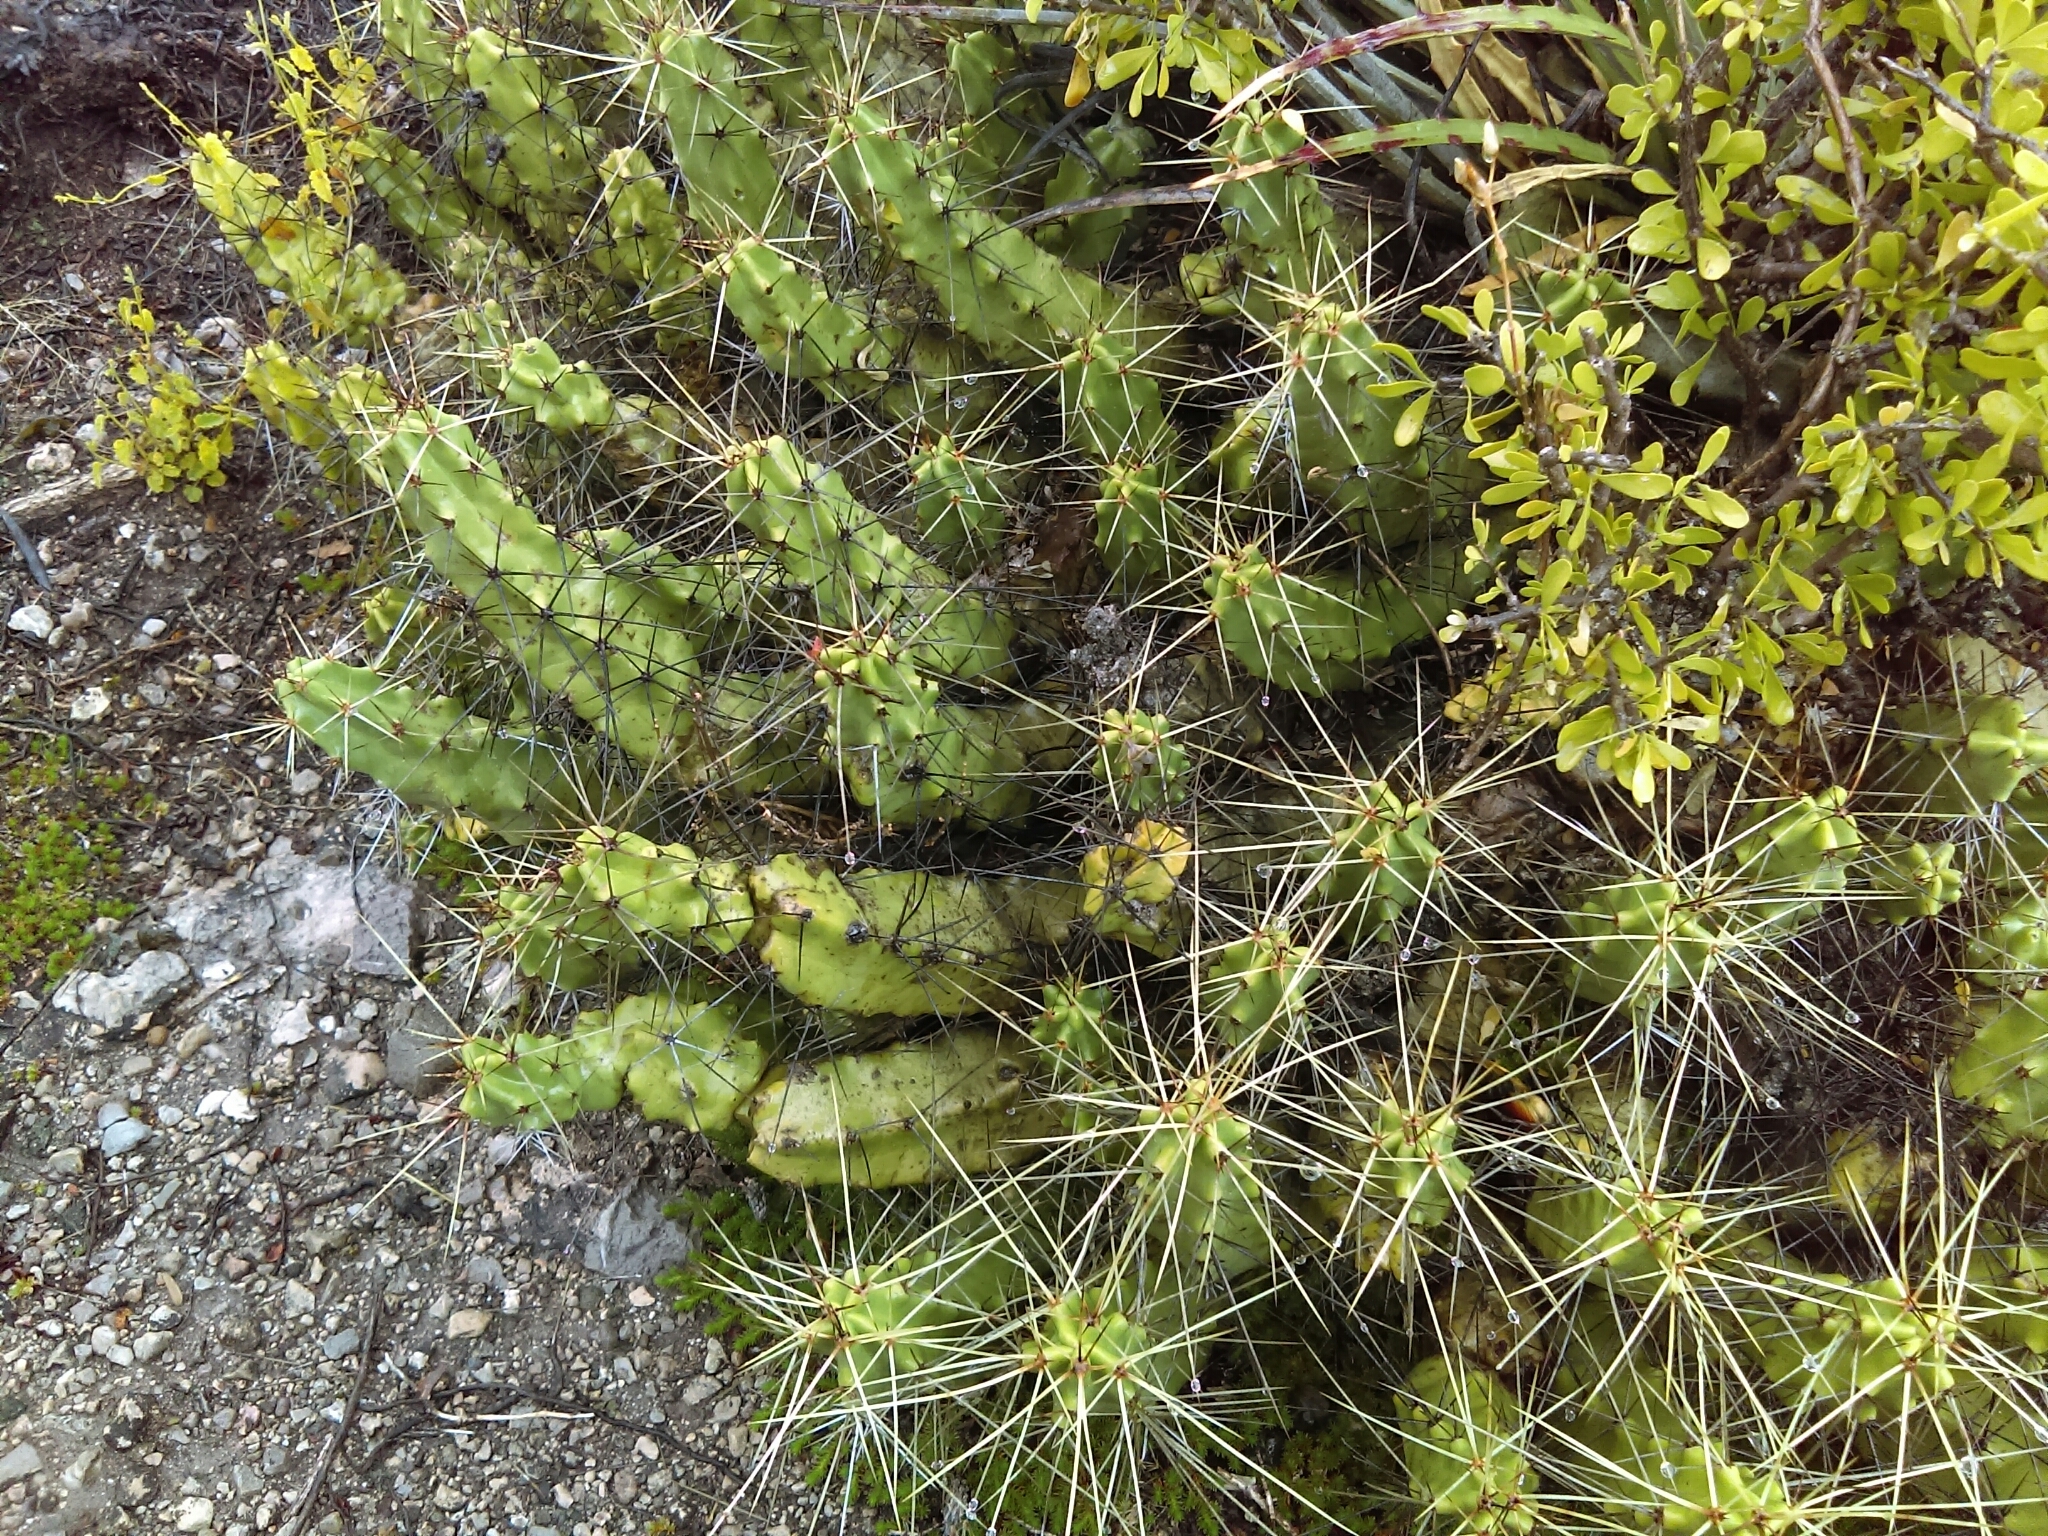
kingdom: Plantae
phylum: Tracheophyta
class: Magnoliopsida
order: Caryophyllales
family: Cactaceae
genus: Echinocereus
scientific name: Echinocereus pentalophus
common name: Ladyfinger cactus
